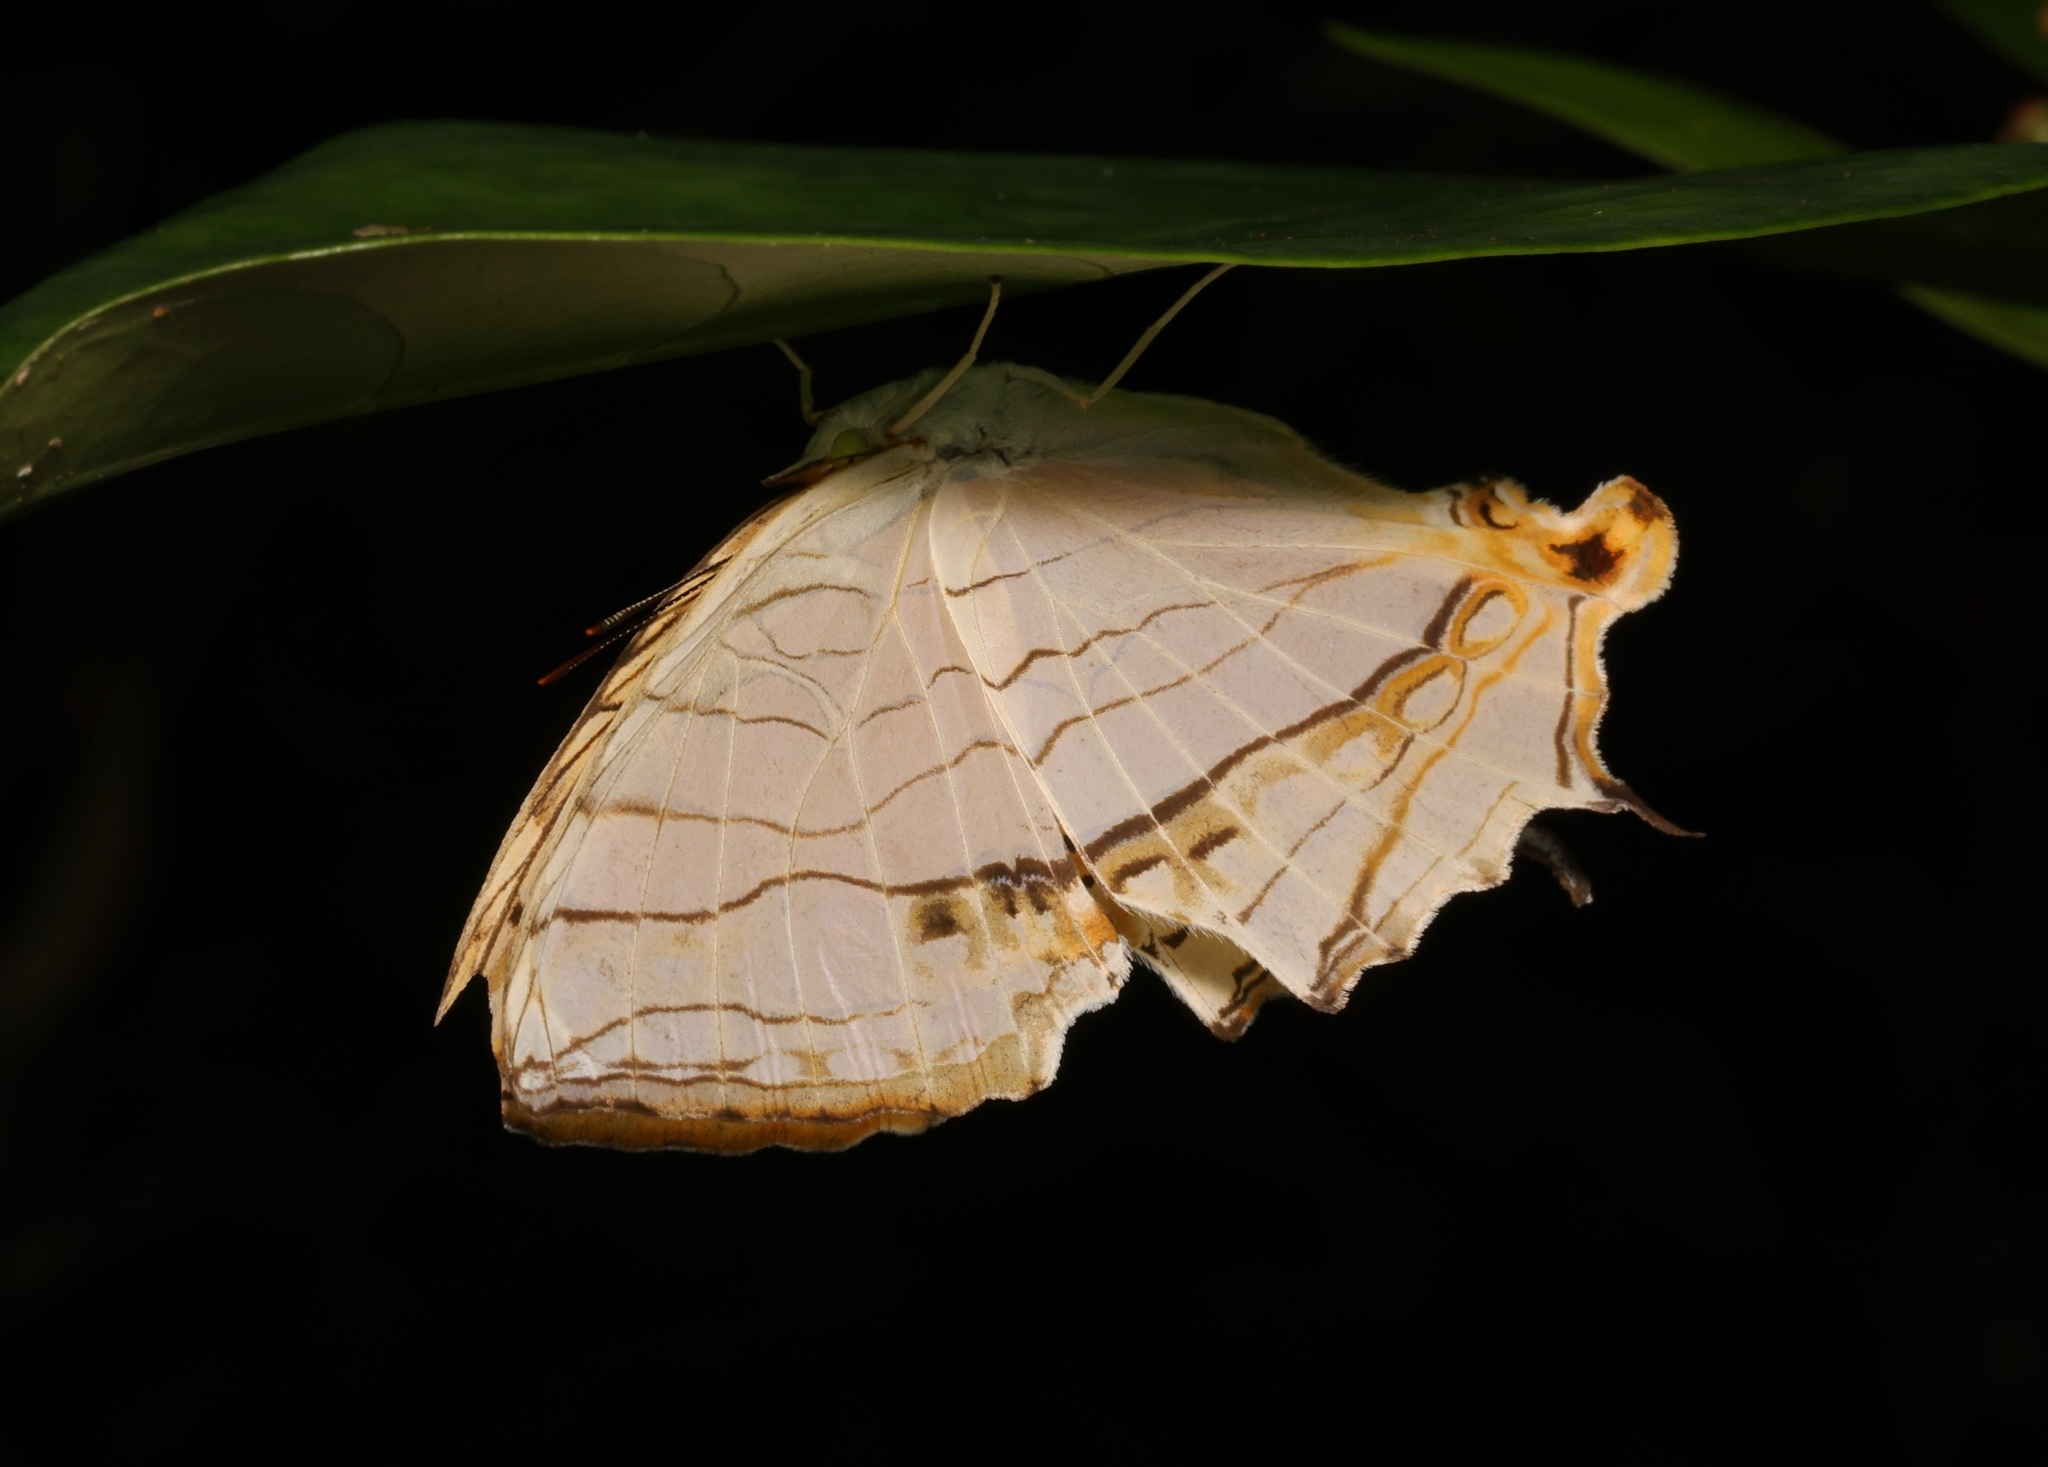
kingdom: Animalia
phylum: Arthropoda
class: Insecta
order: Lepidoptera
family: Nymphalidae
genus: Cyrestis
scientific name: Cyrestis thyodamas
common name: Common mapwing
